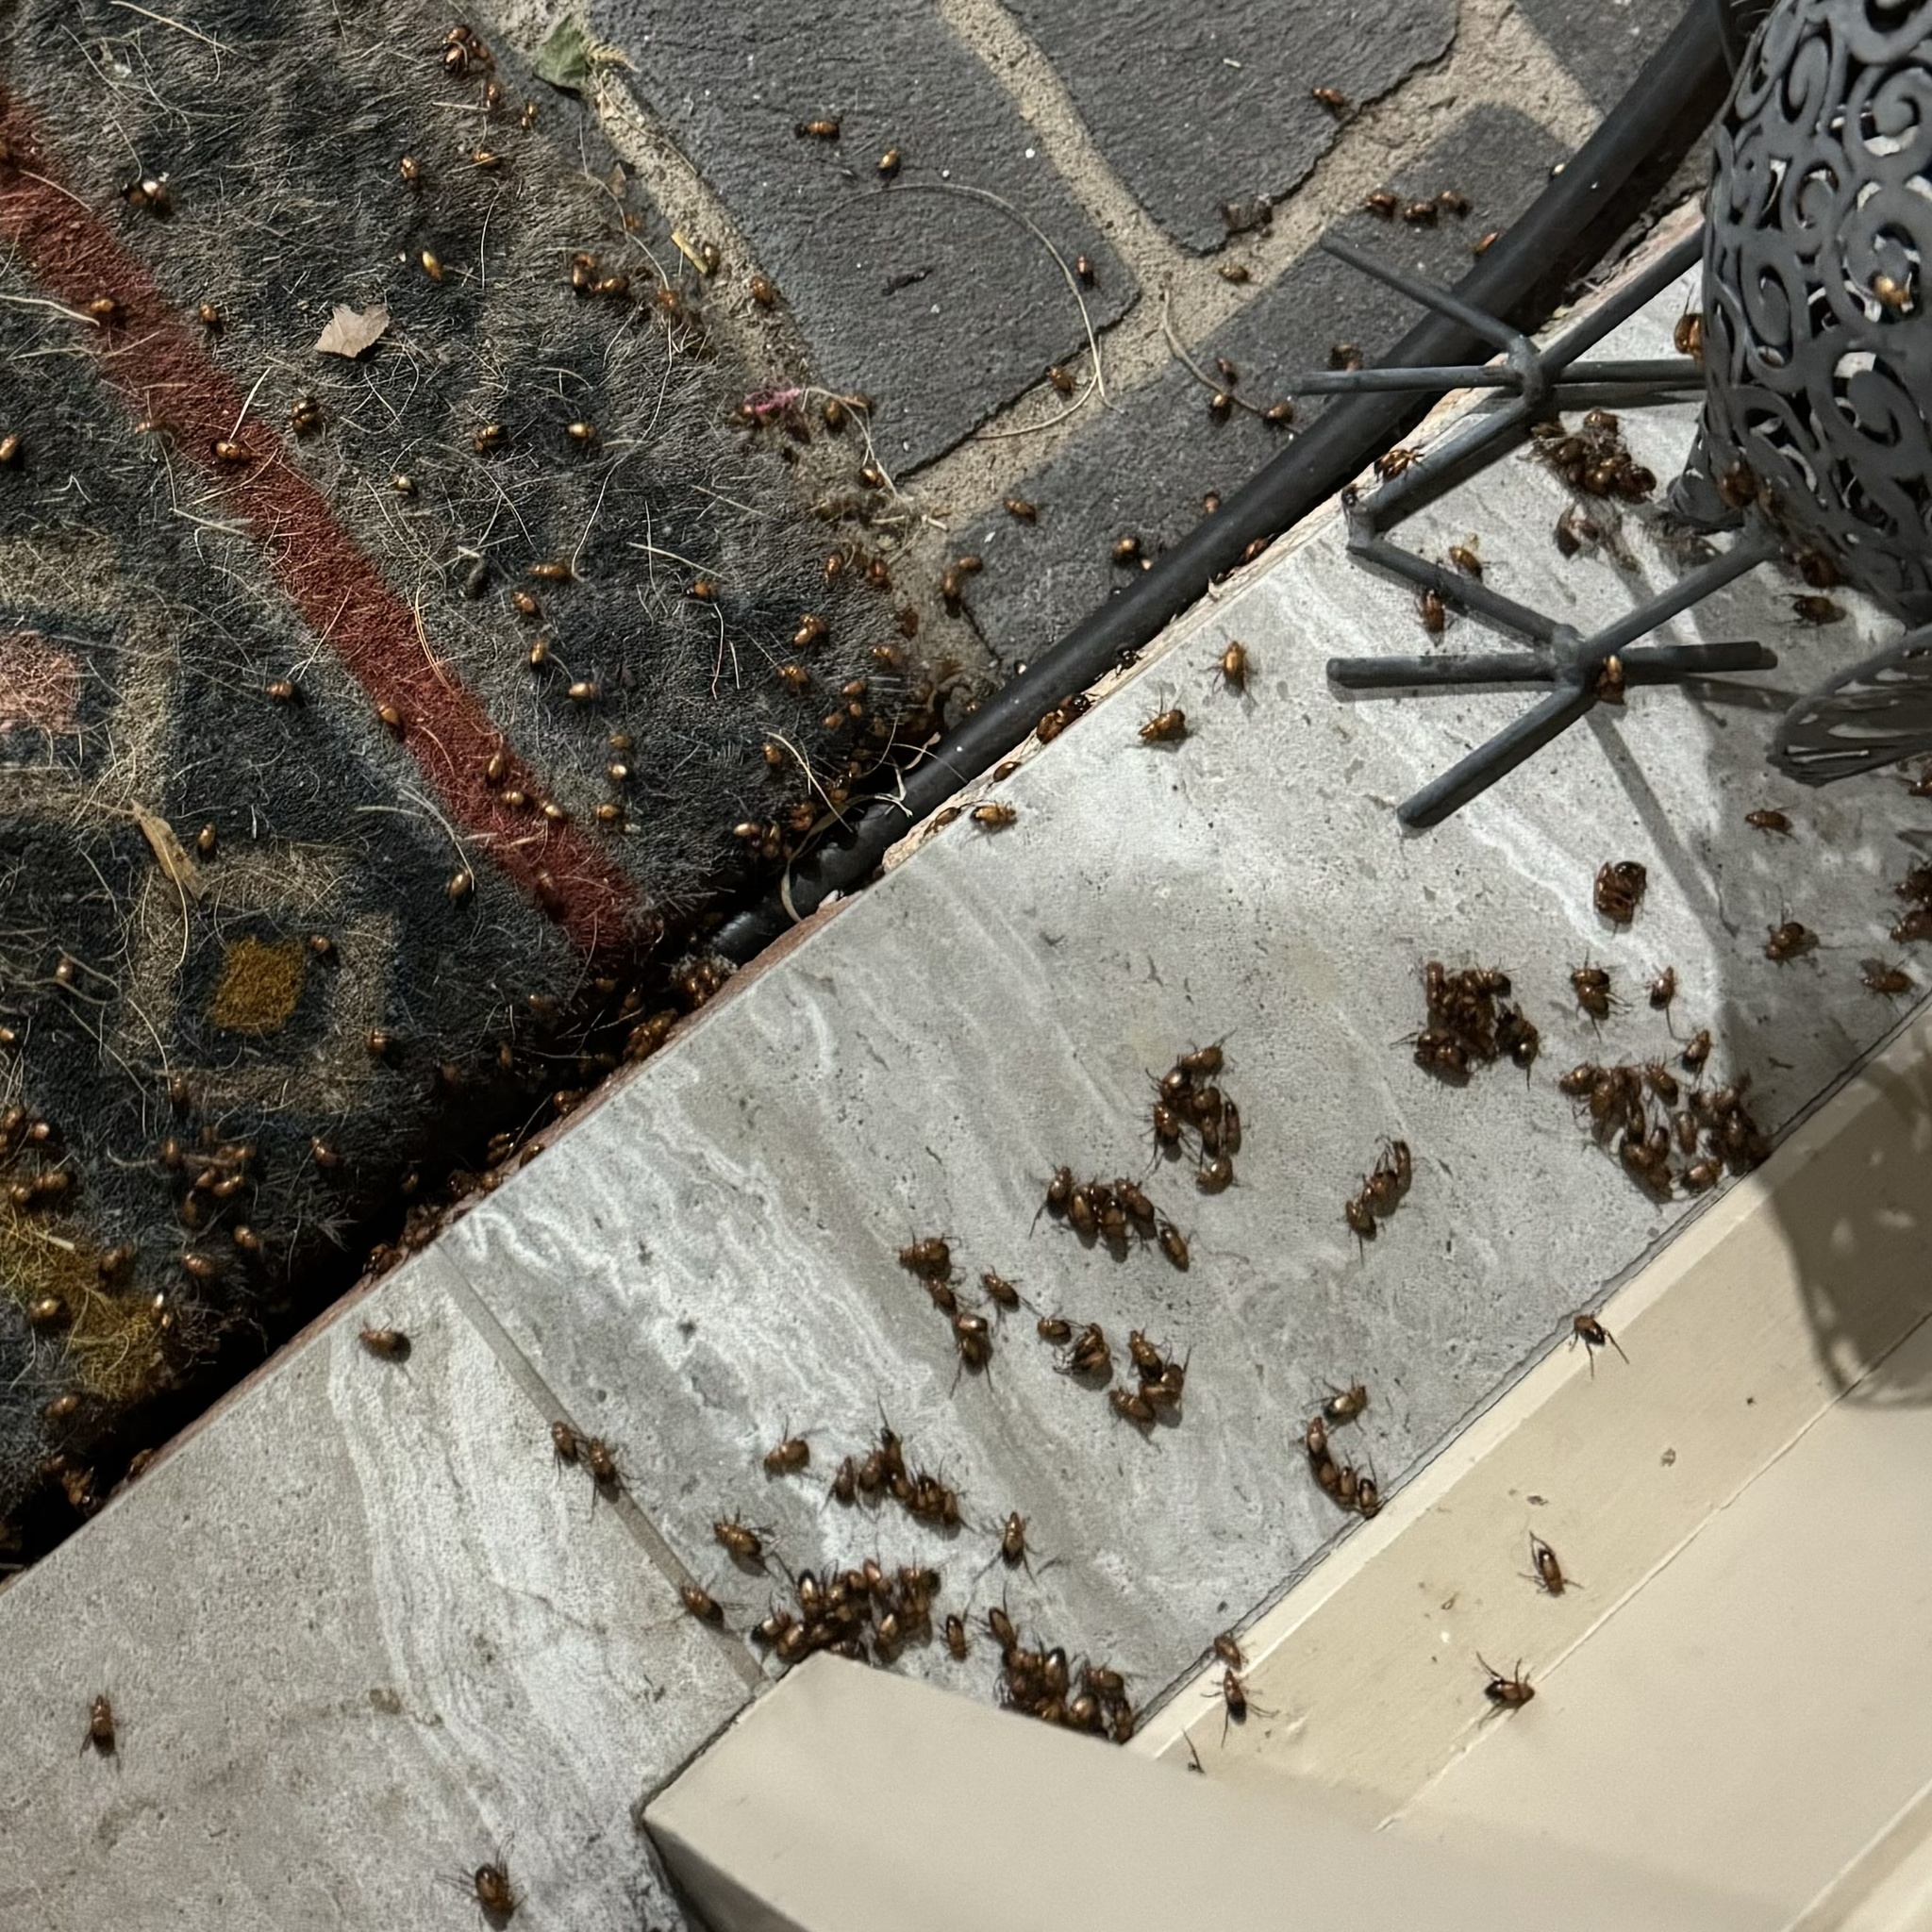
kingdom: Animalia
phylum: Arthropoda
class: Insecta
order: Coleoptera
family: Scarabaeidae
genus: Phyllotocus
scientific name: Phyllotocus macleayi
